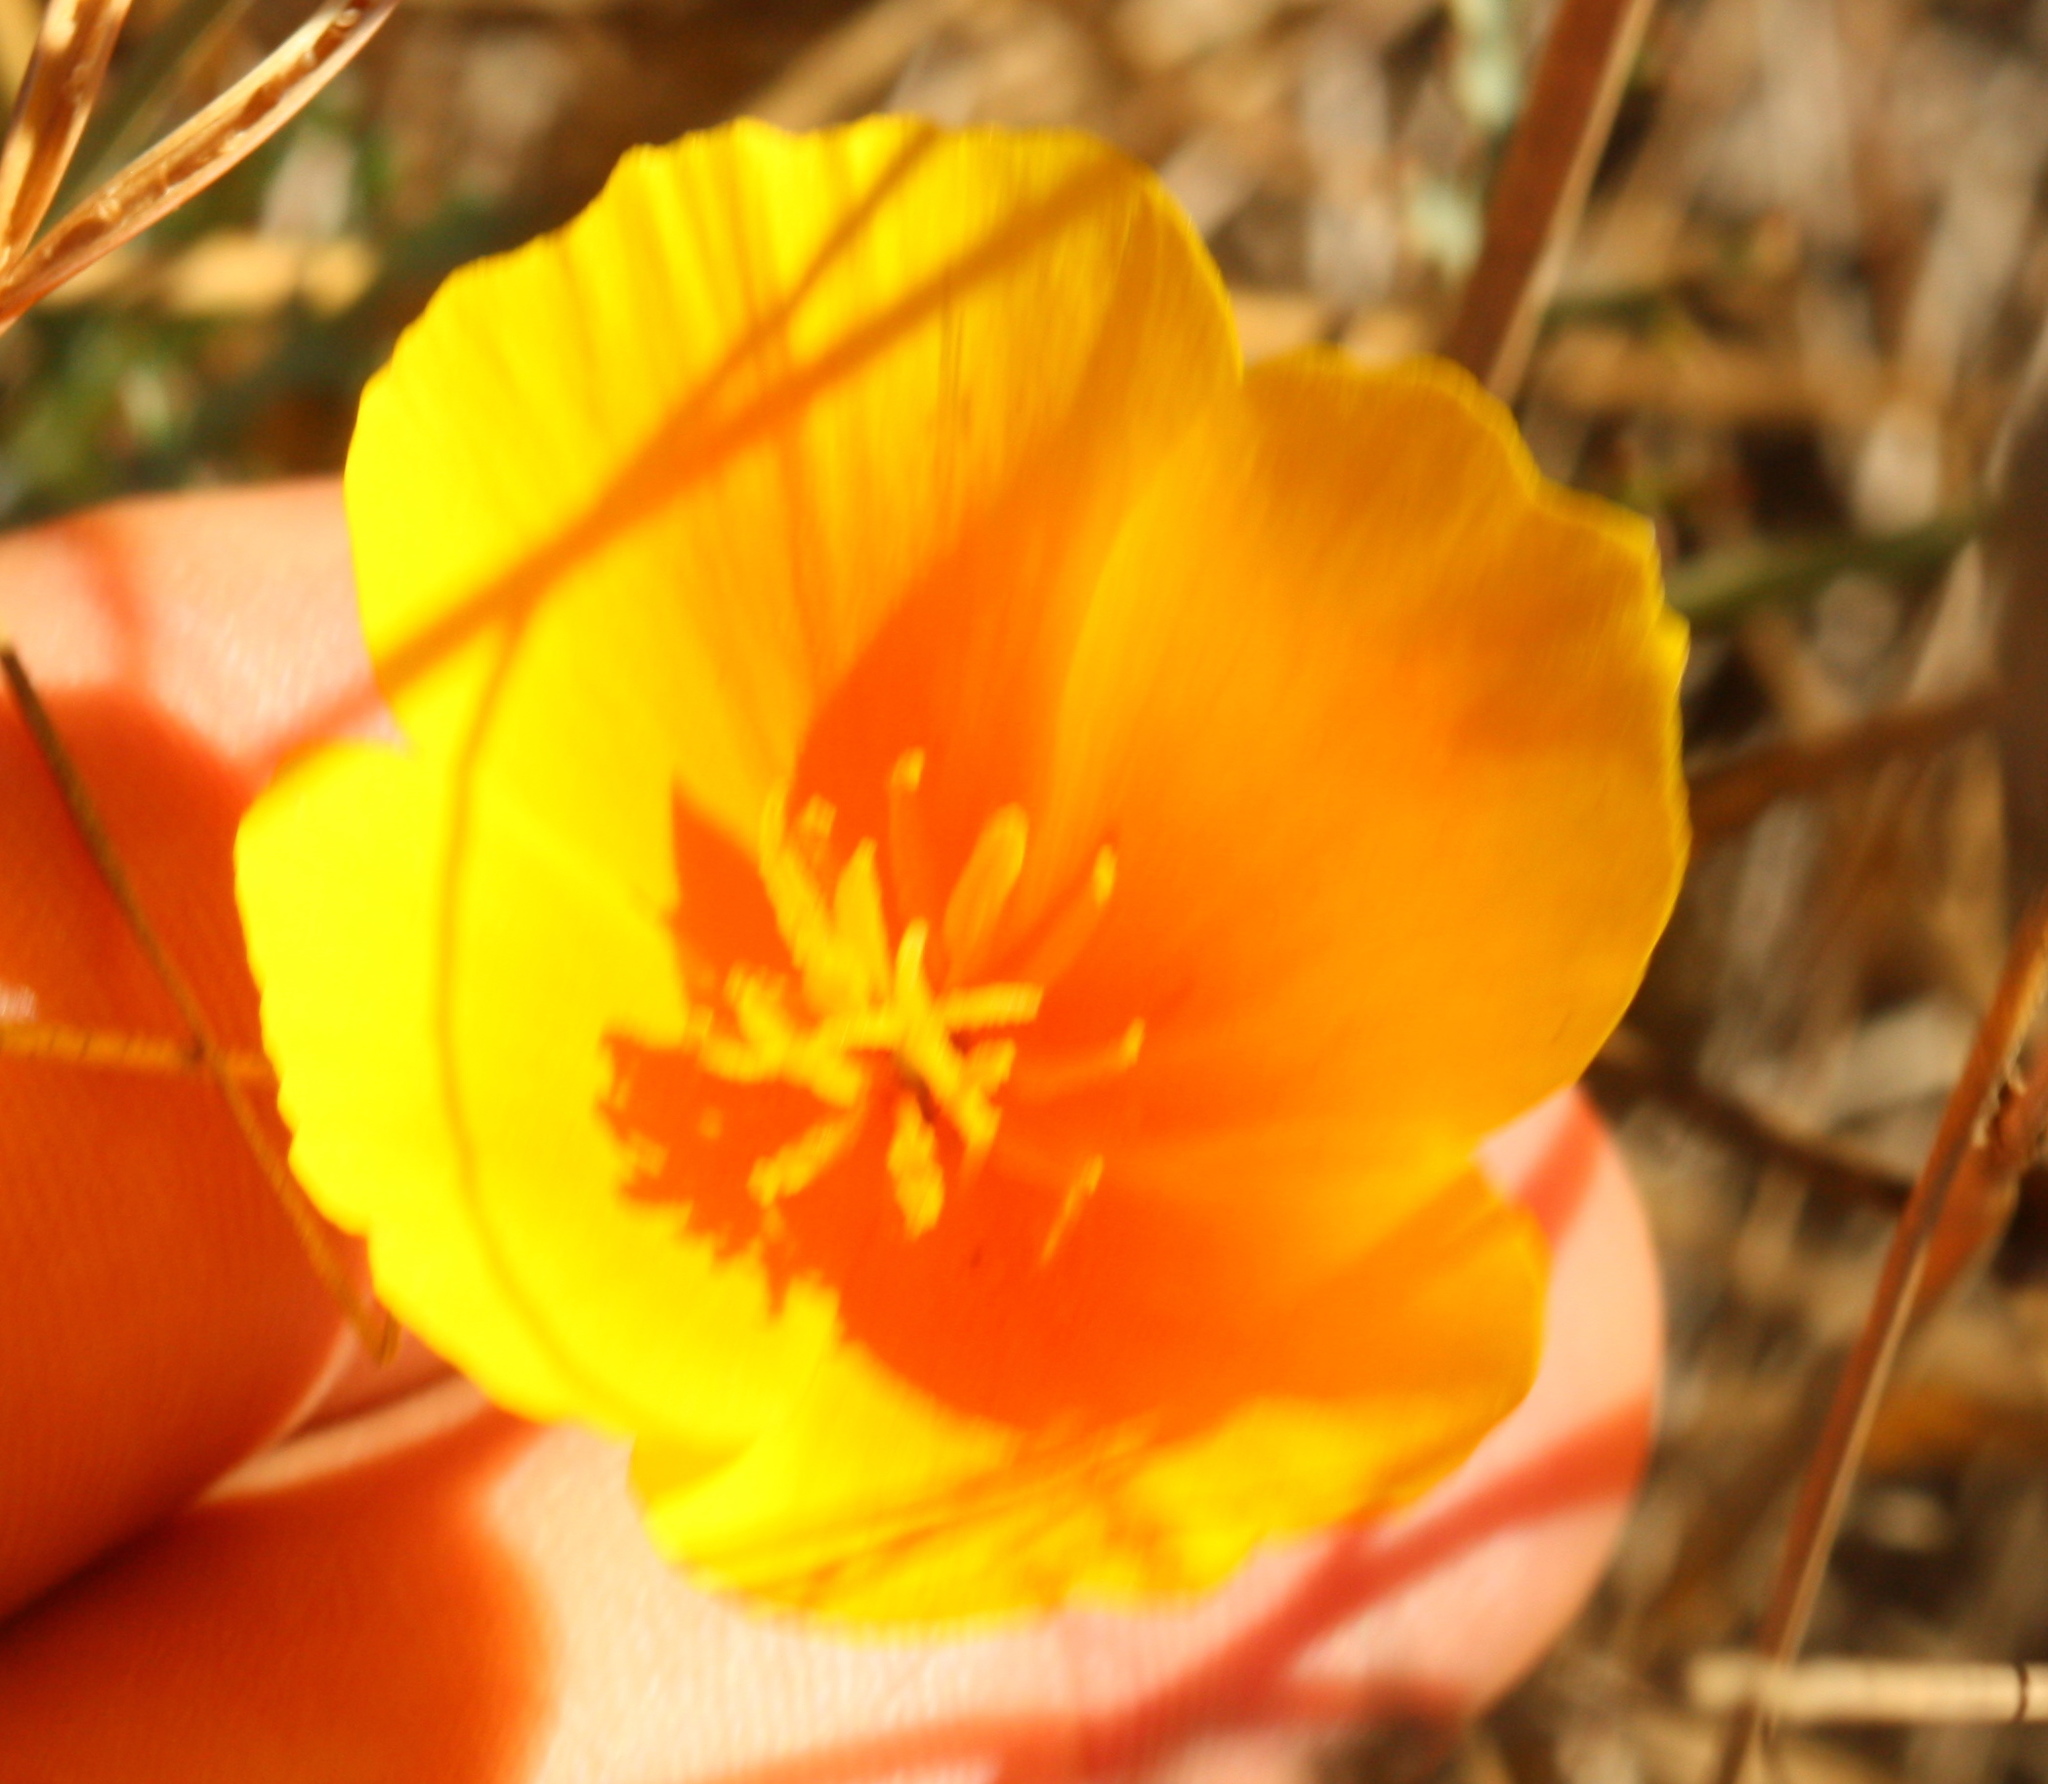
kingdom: Plantae
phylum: Tracheophyta
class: Magnoliopsida
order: Ranunculales
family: Papaveraceae
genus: Eschscholzia
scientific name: Eschscholzia californica
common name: California poppy
